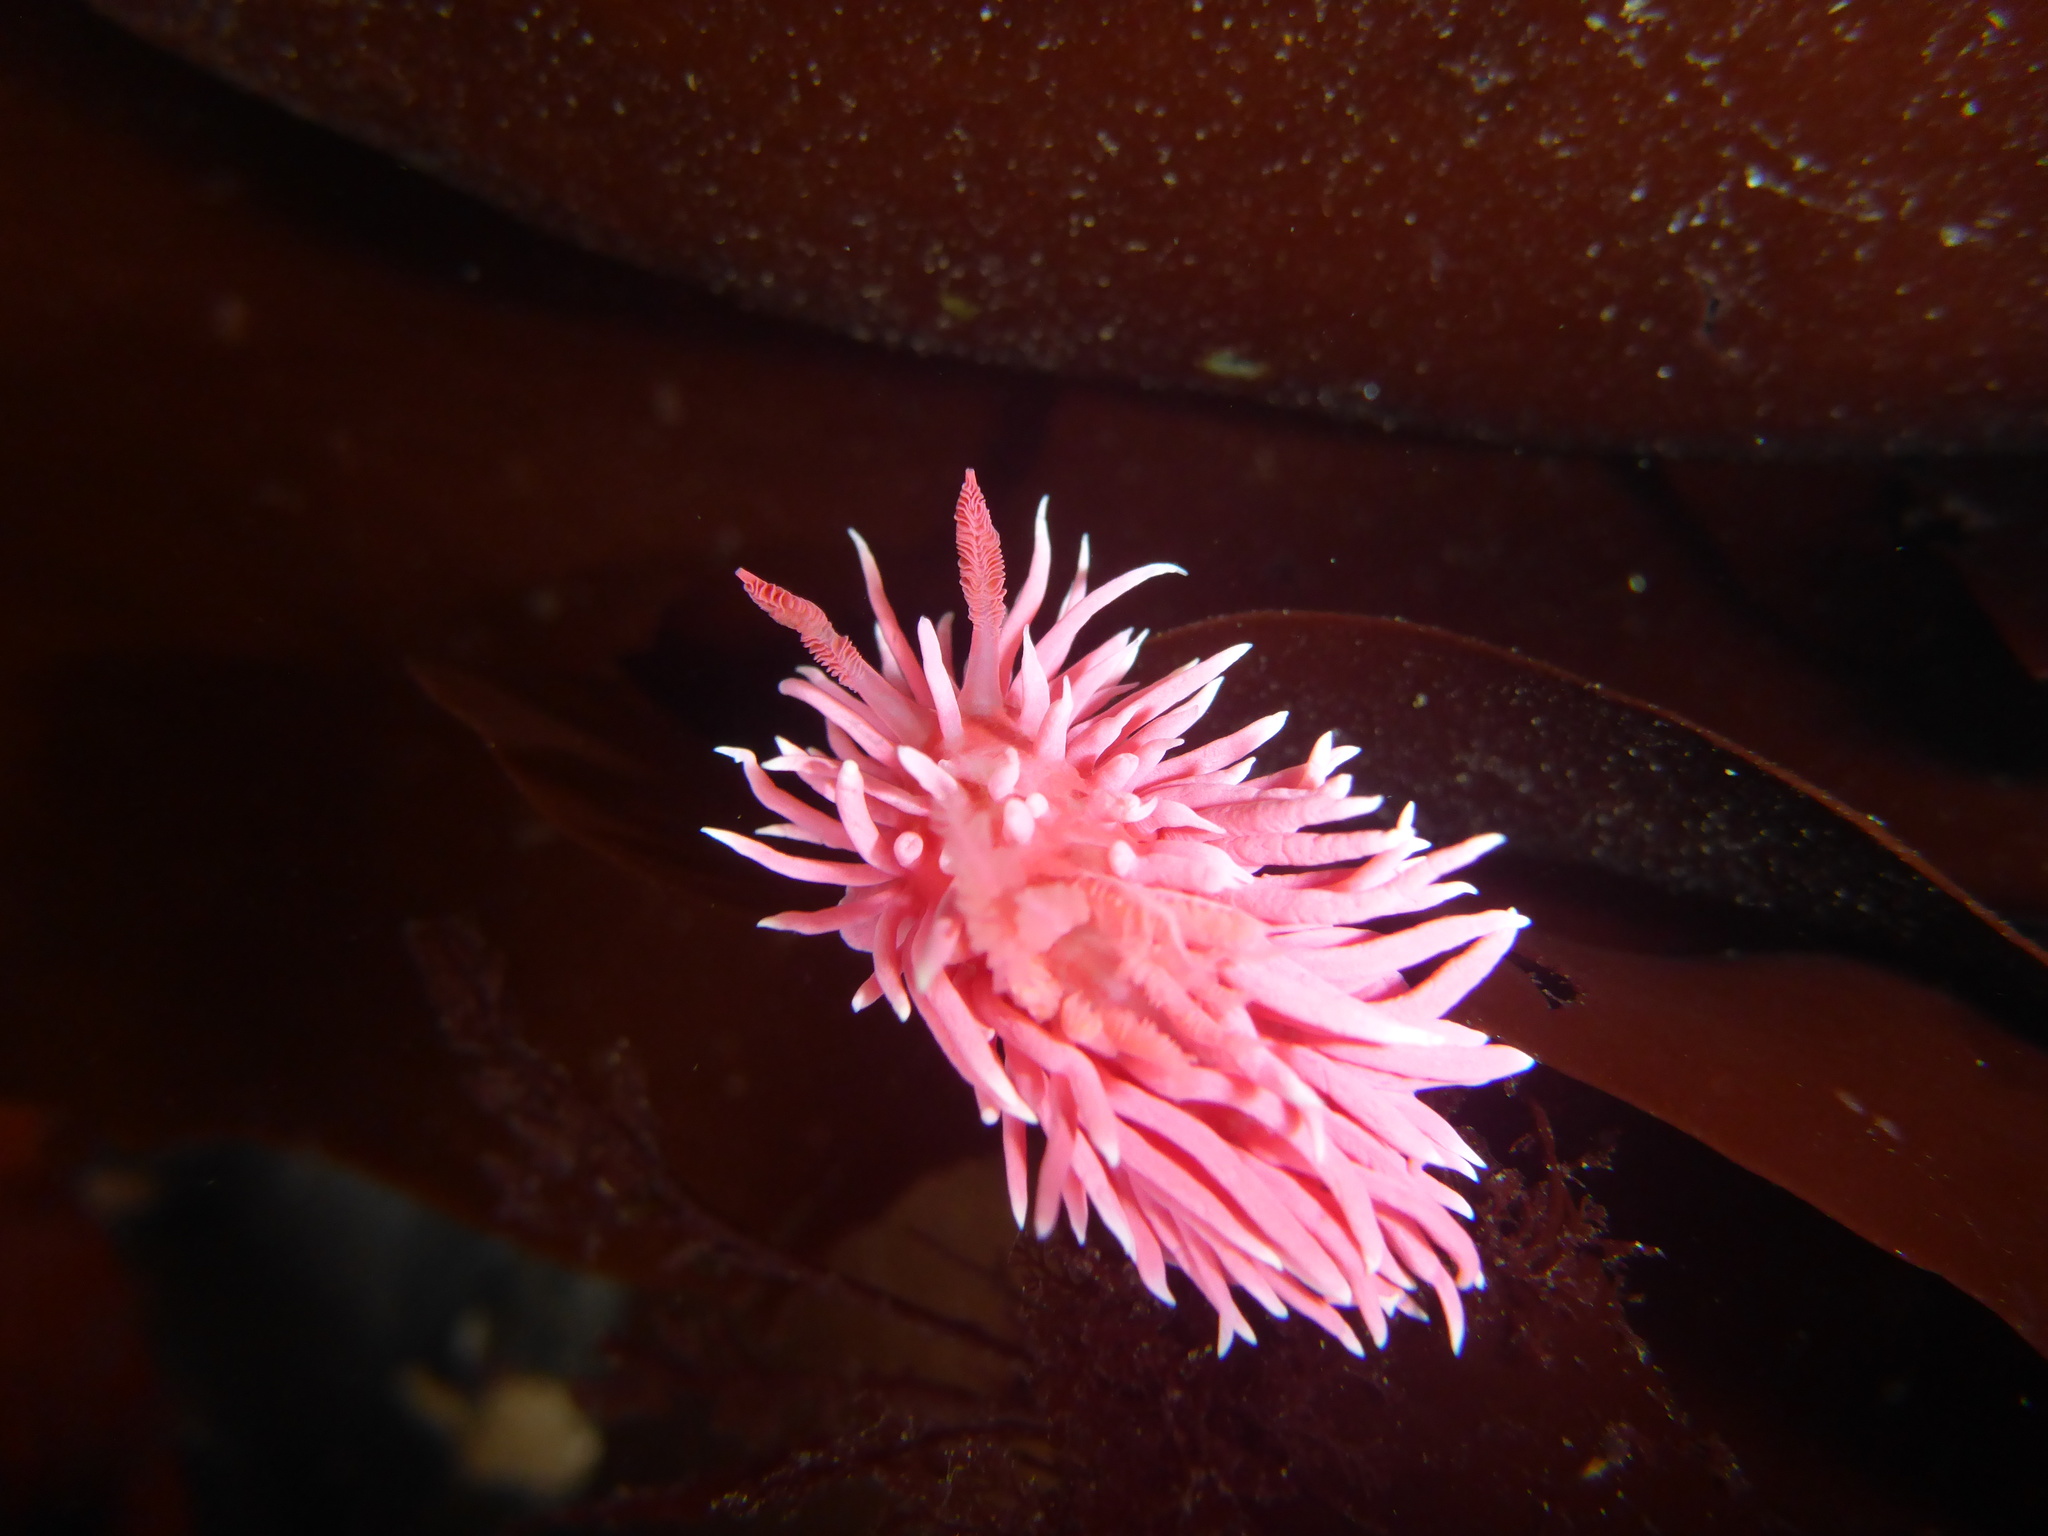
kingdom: Animalia
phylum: Mollusca
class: Gastropoda
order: Nudibranchia
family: Goniodorididae
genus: Okenia
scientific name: Okenia
